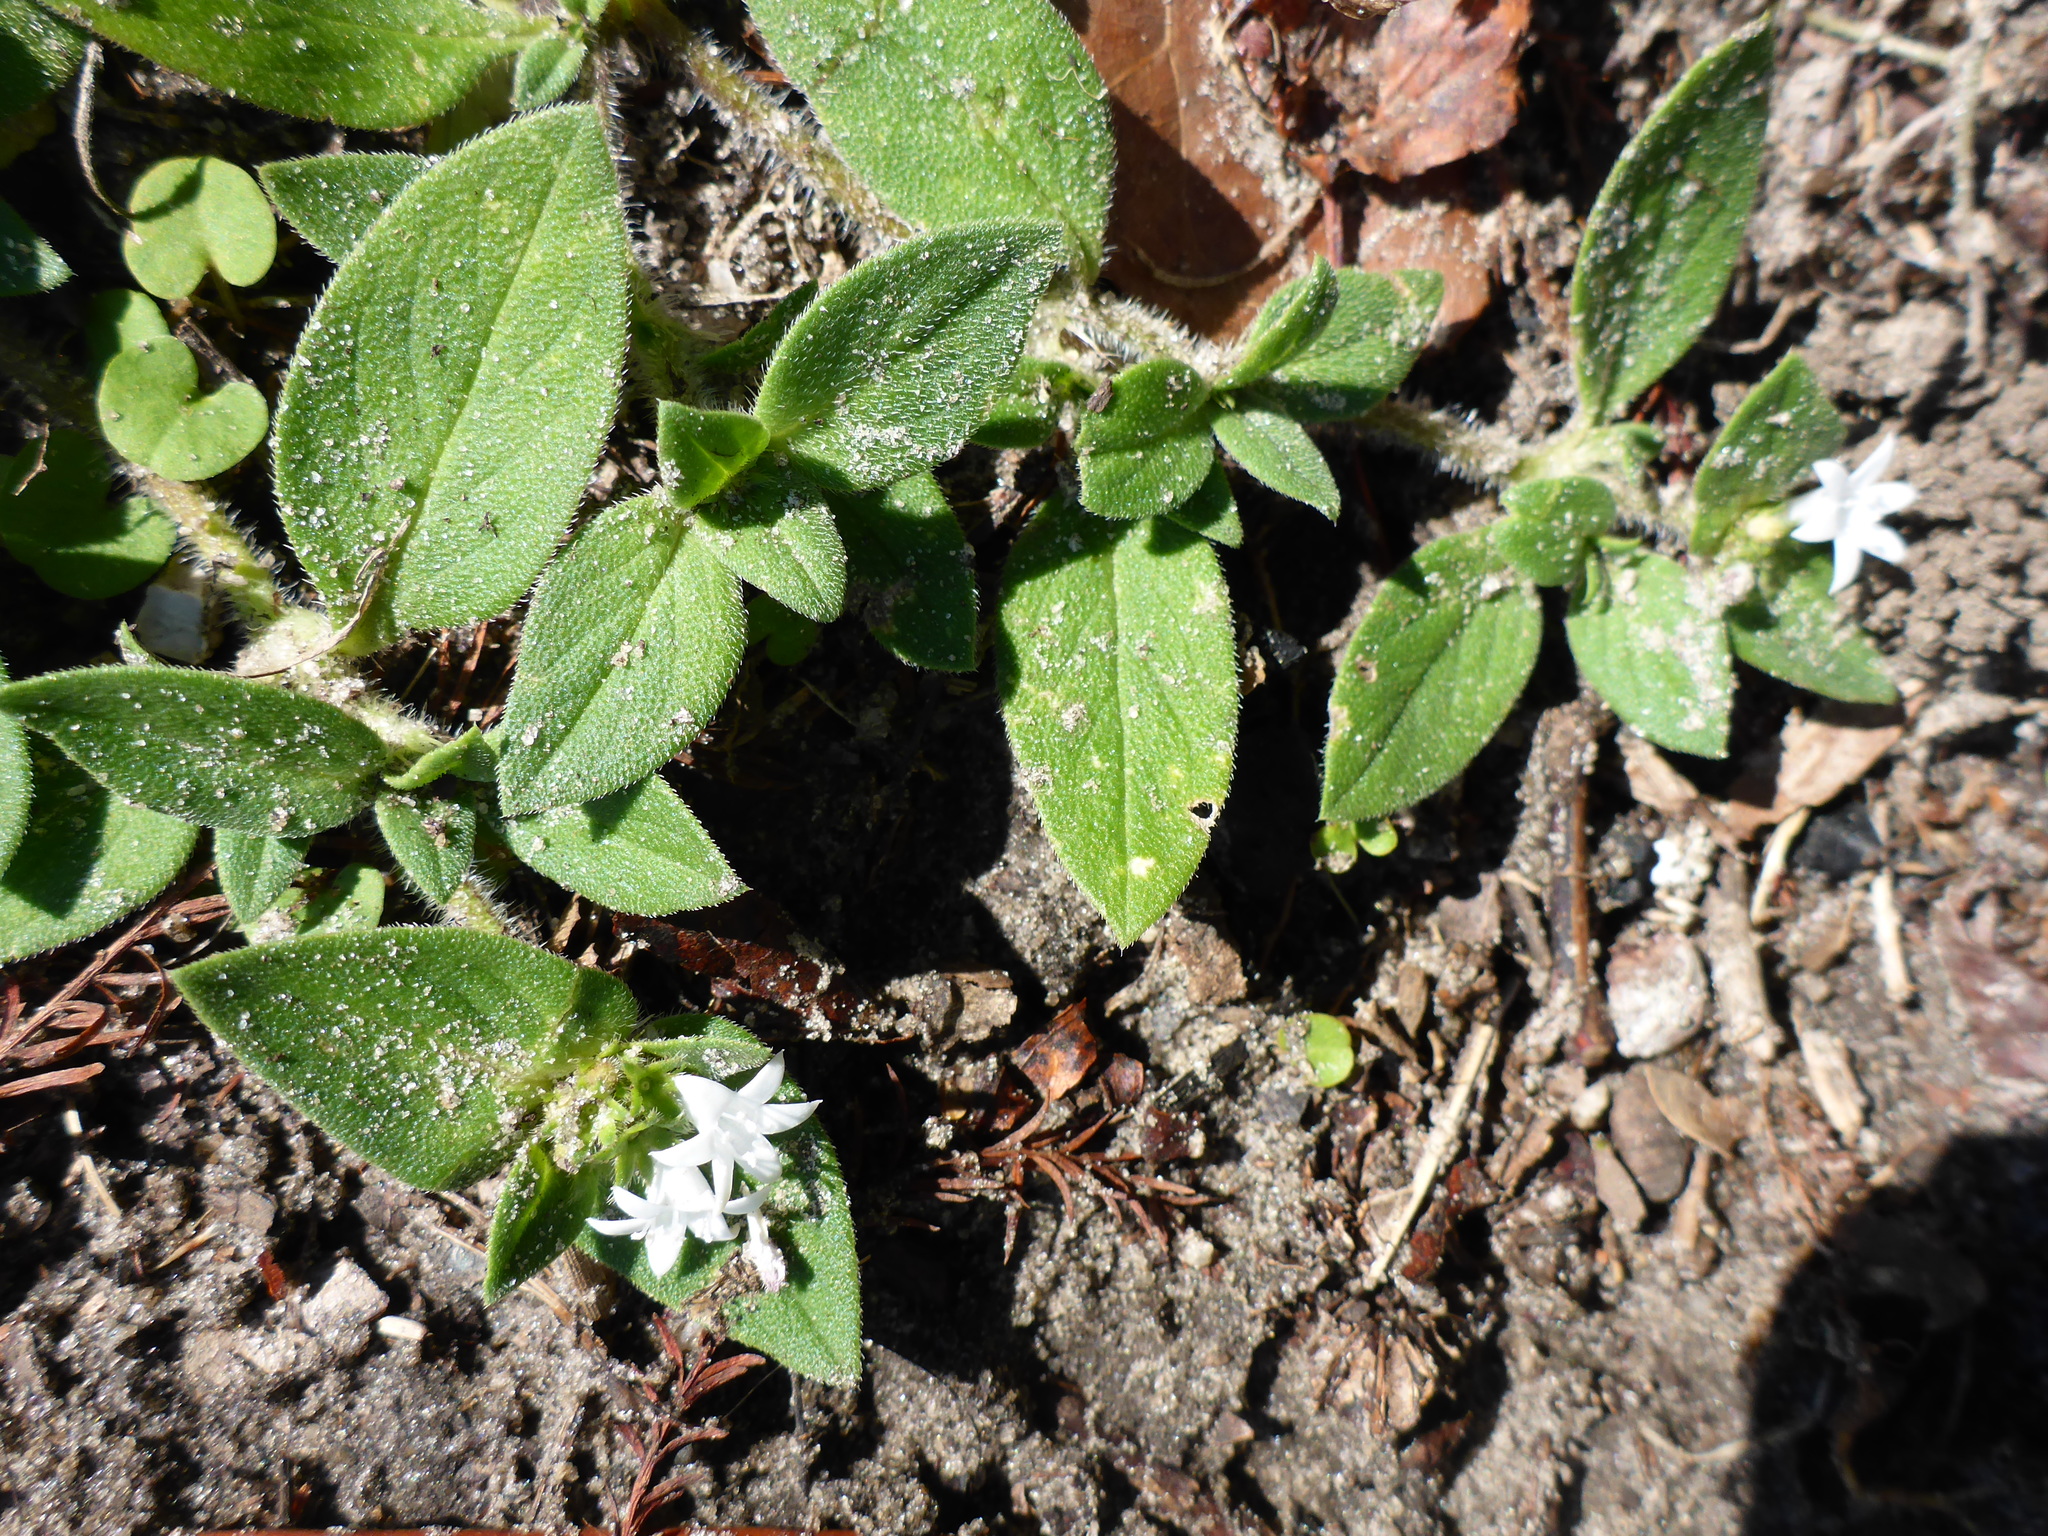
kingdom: Plantae
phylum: Tracheophyta
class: Magnoliopsida
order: Gentianales
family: Rubiaceae
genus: Richardia
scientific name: Richardia scabra
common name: Rough mexican clover
